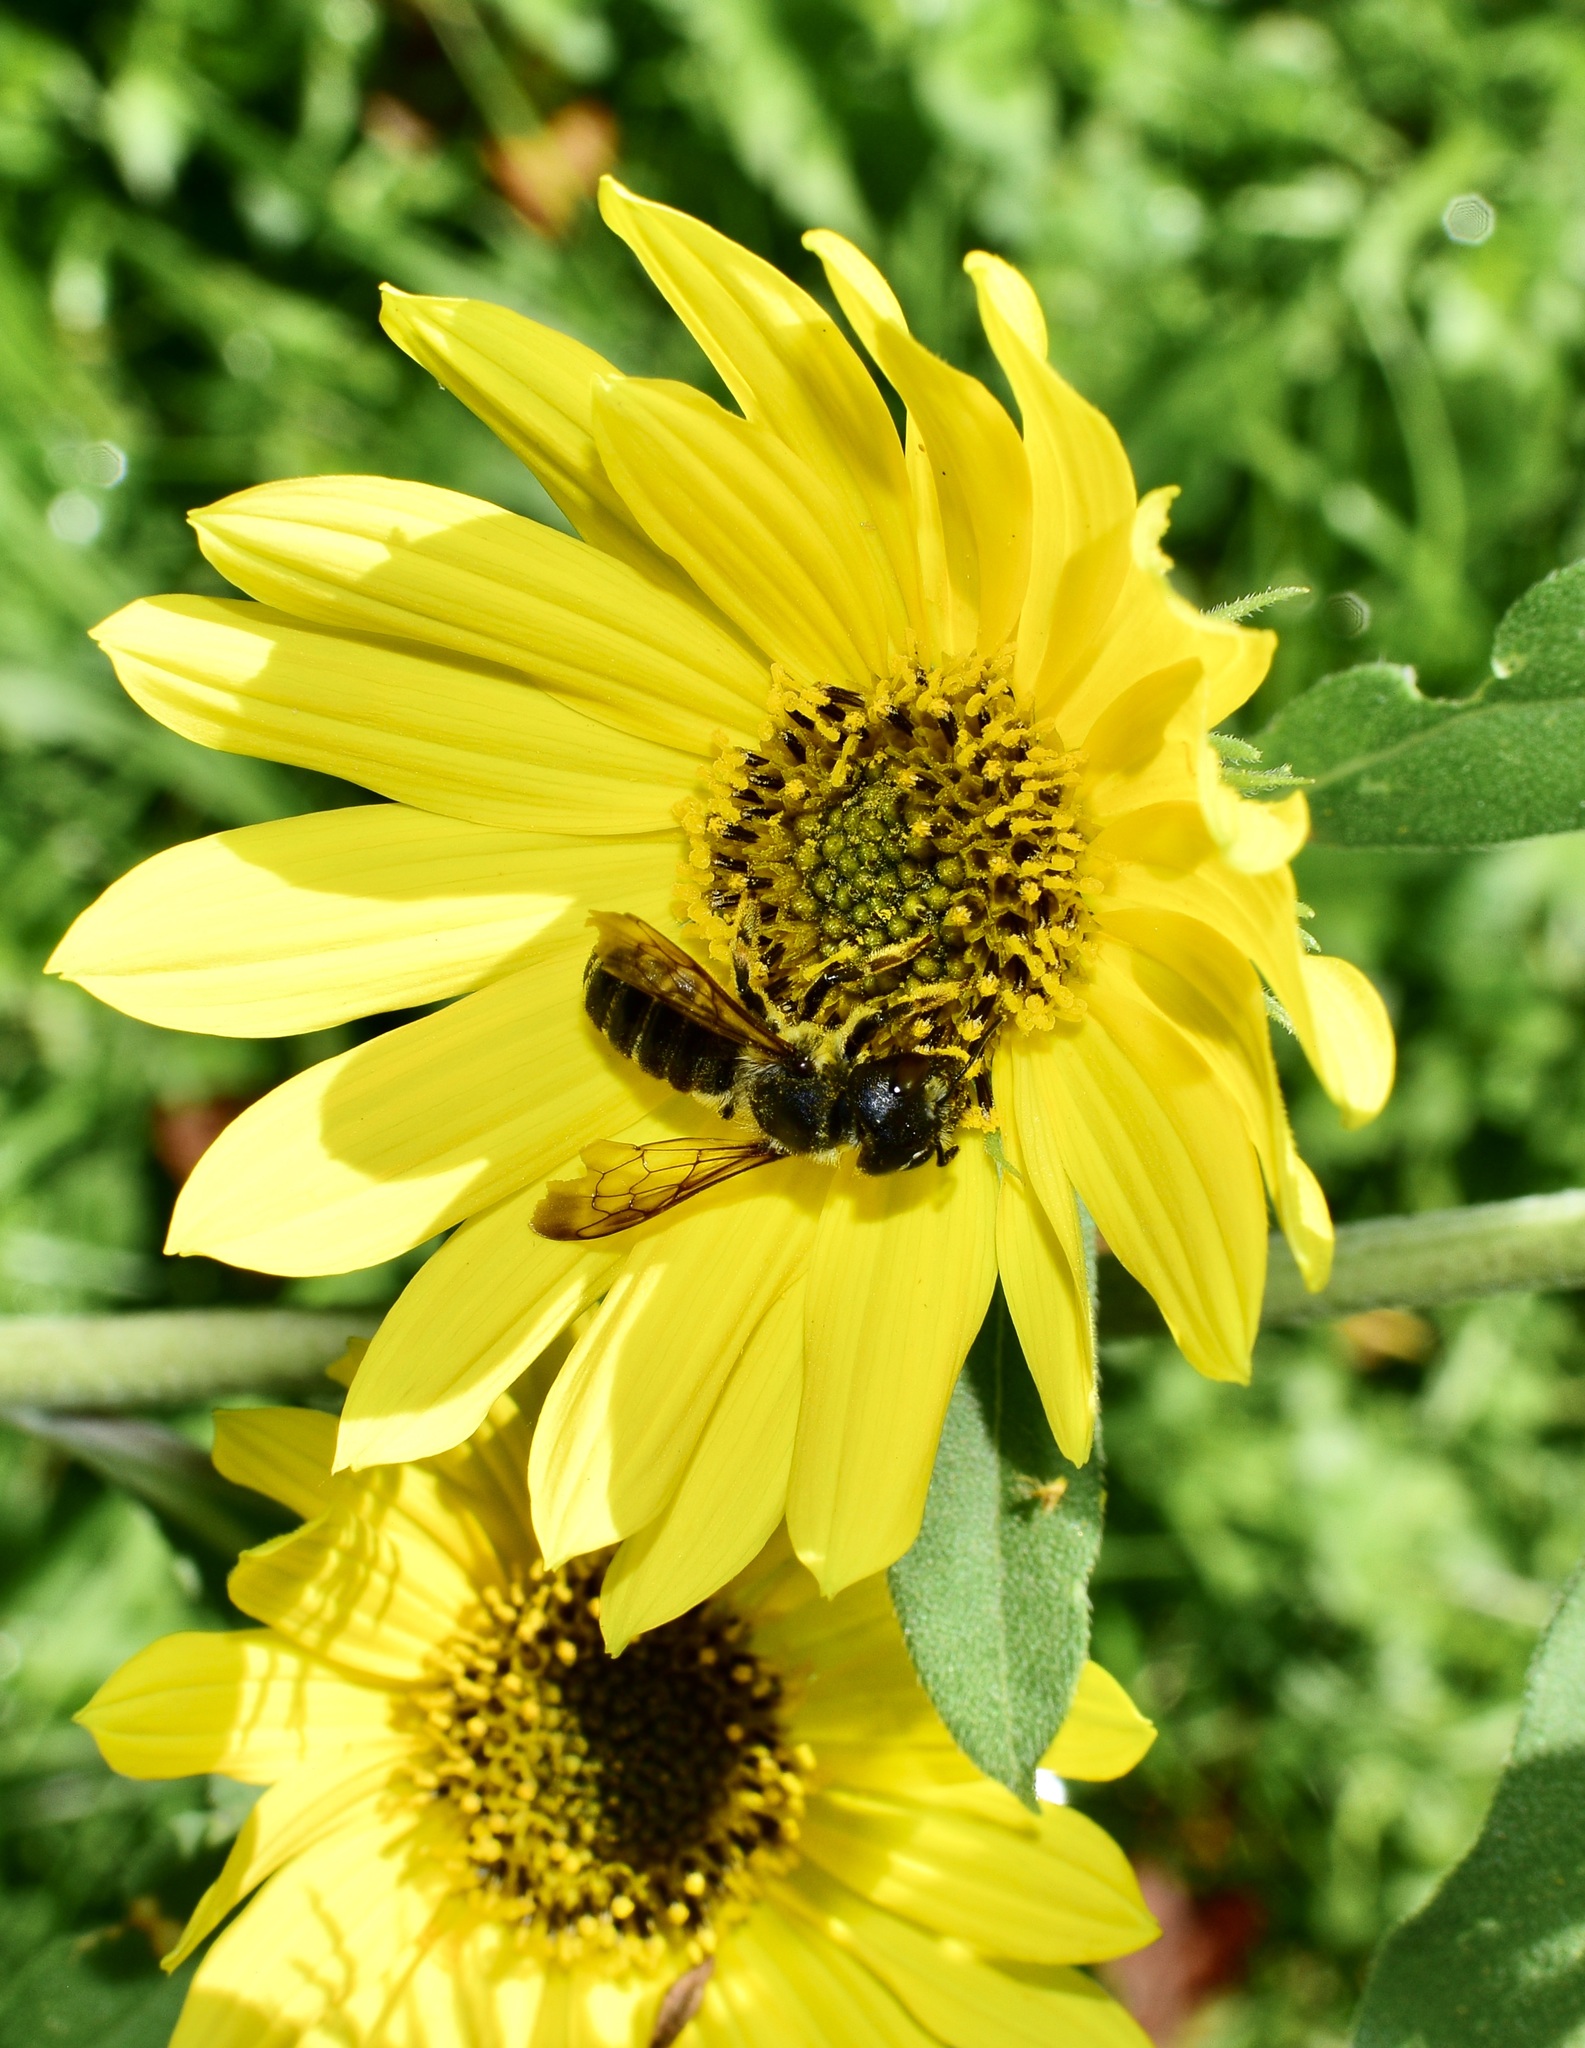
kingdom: Animalia
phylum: Arthropoda
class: Insecta
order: Hymenoptera
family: Megachilidae
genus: Megachile
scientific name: Megachile pugnata
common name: Pugnacious leafcutter bee
